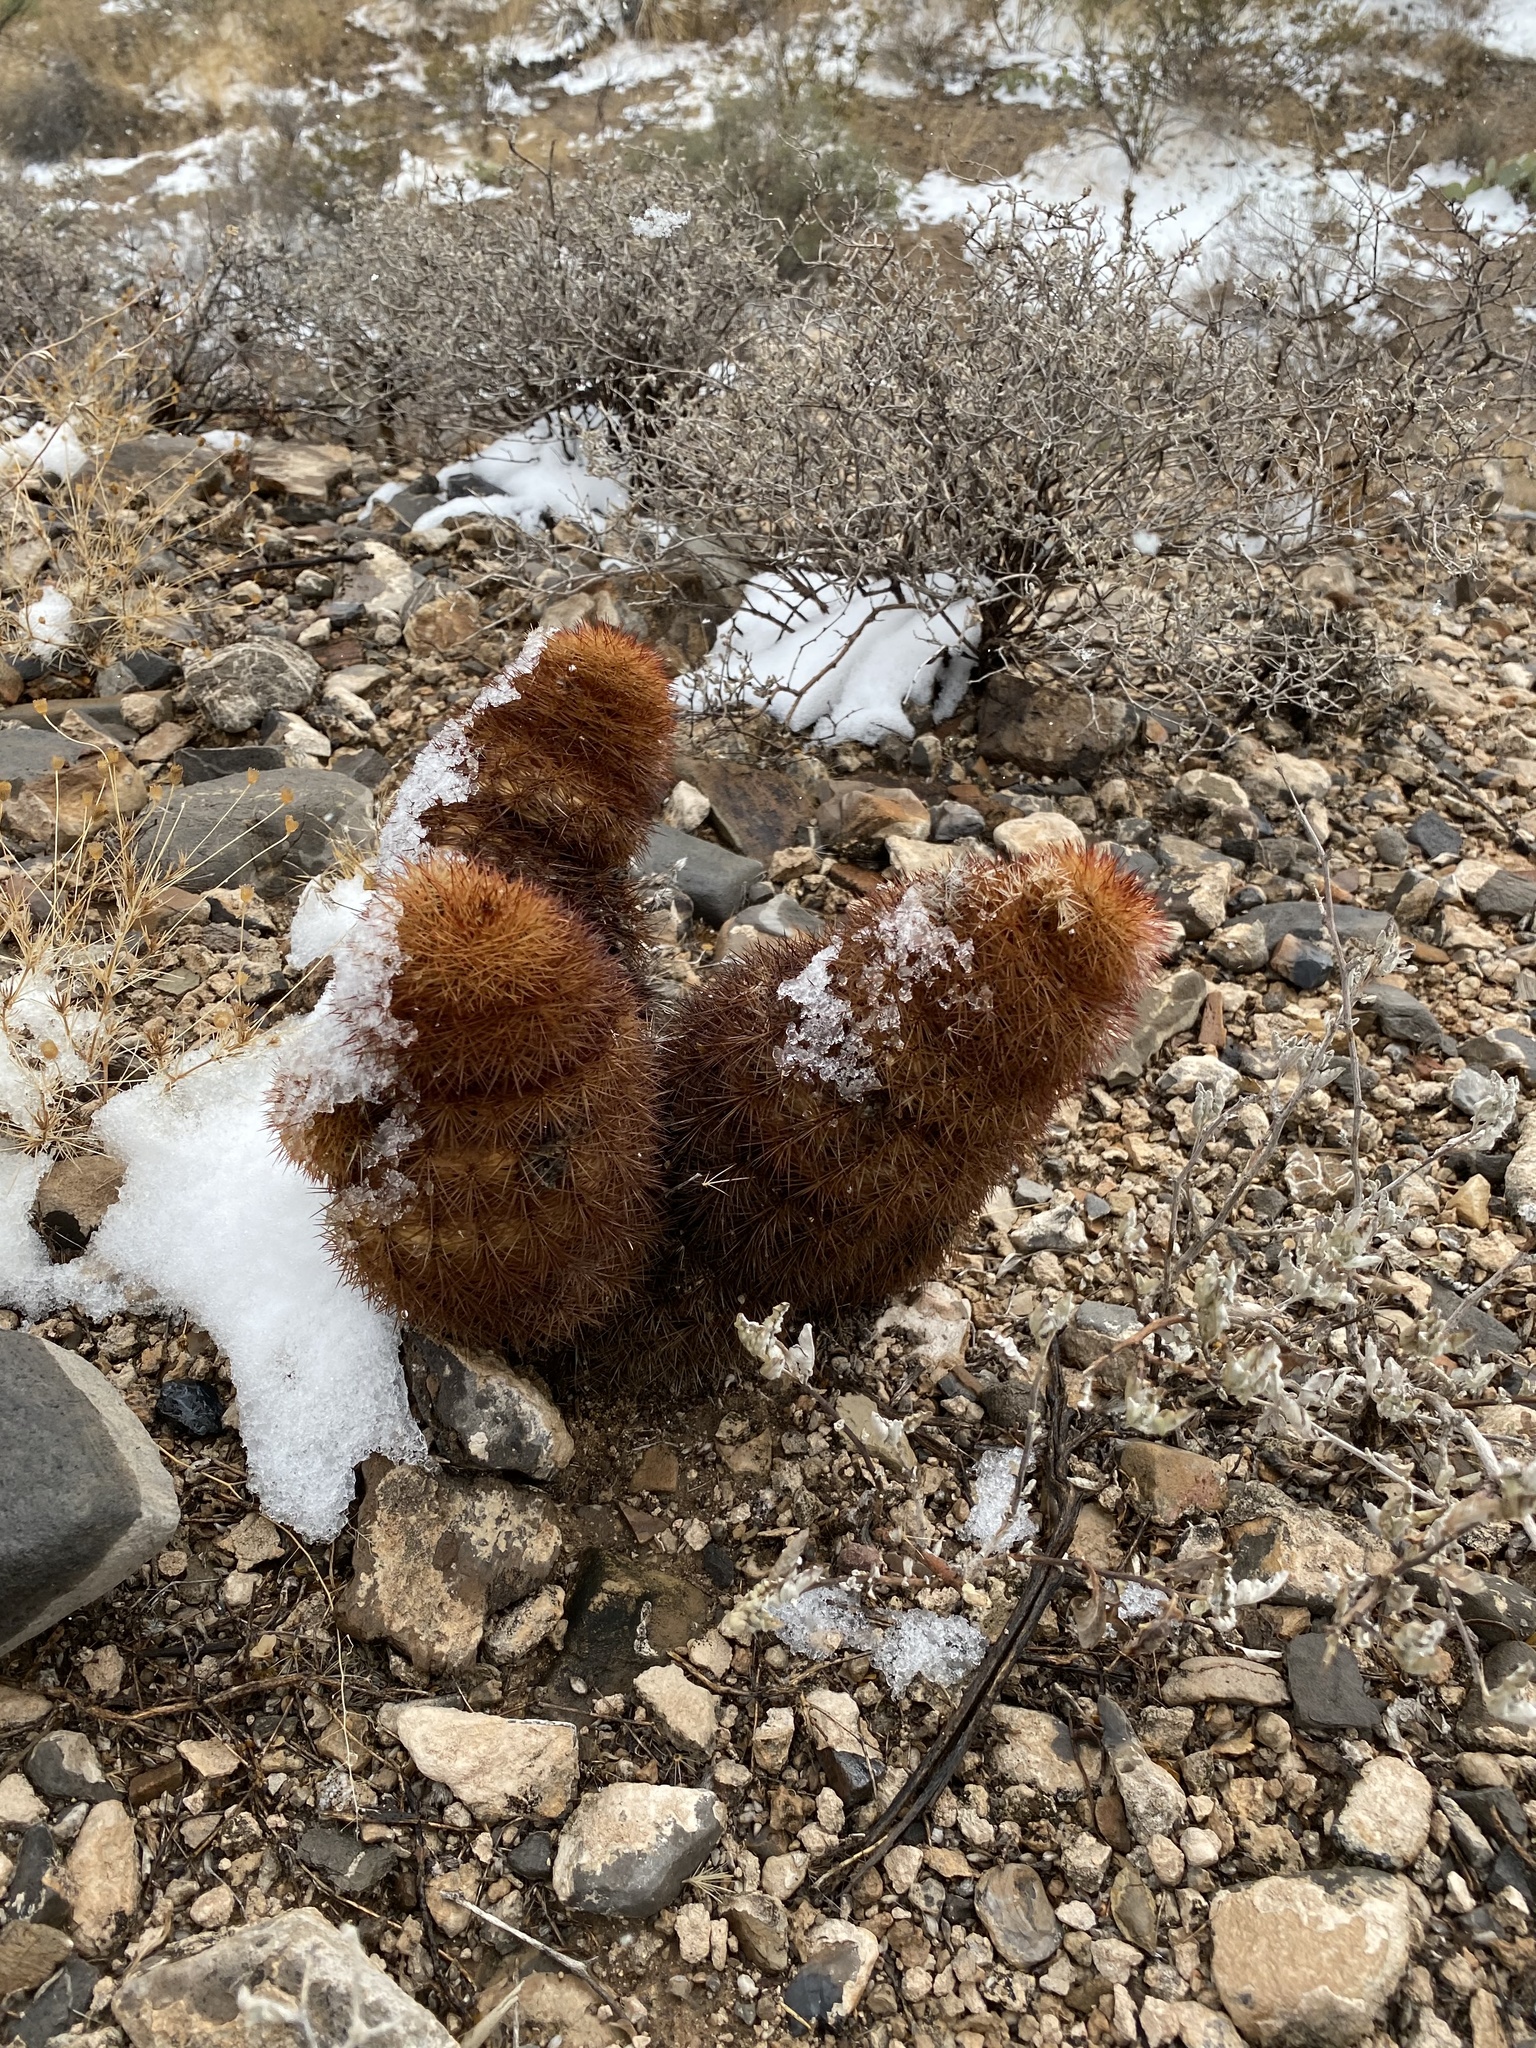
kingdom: Plantae
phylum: Tracheophyta
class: Magnoliopsida
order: Caryophyllales
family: Cactaceae
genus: Echinocereus
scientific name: Echinocereus dasyacanthus
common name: Spiny hedgehog cactus
